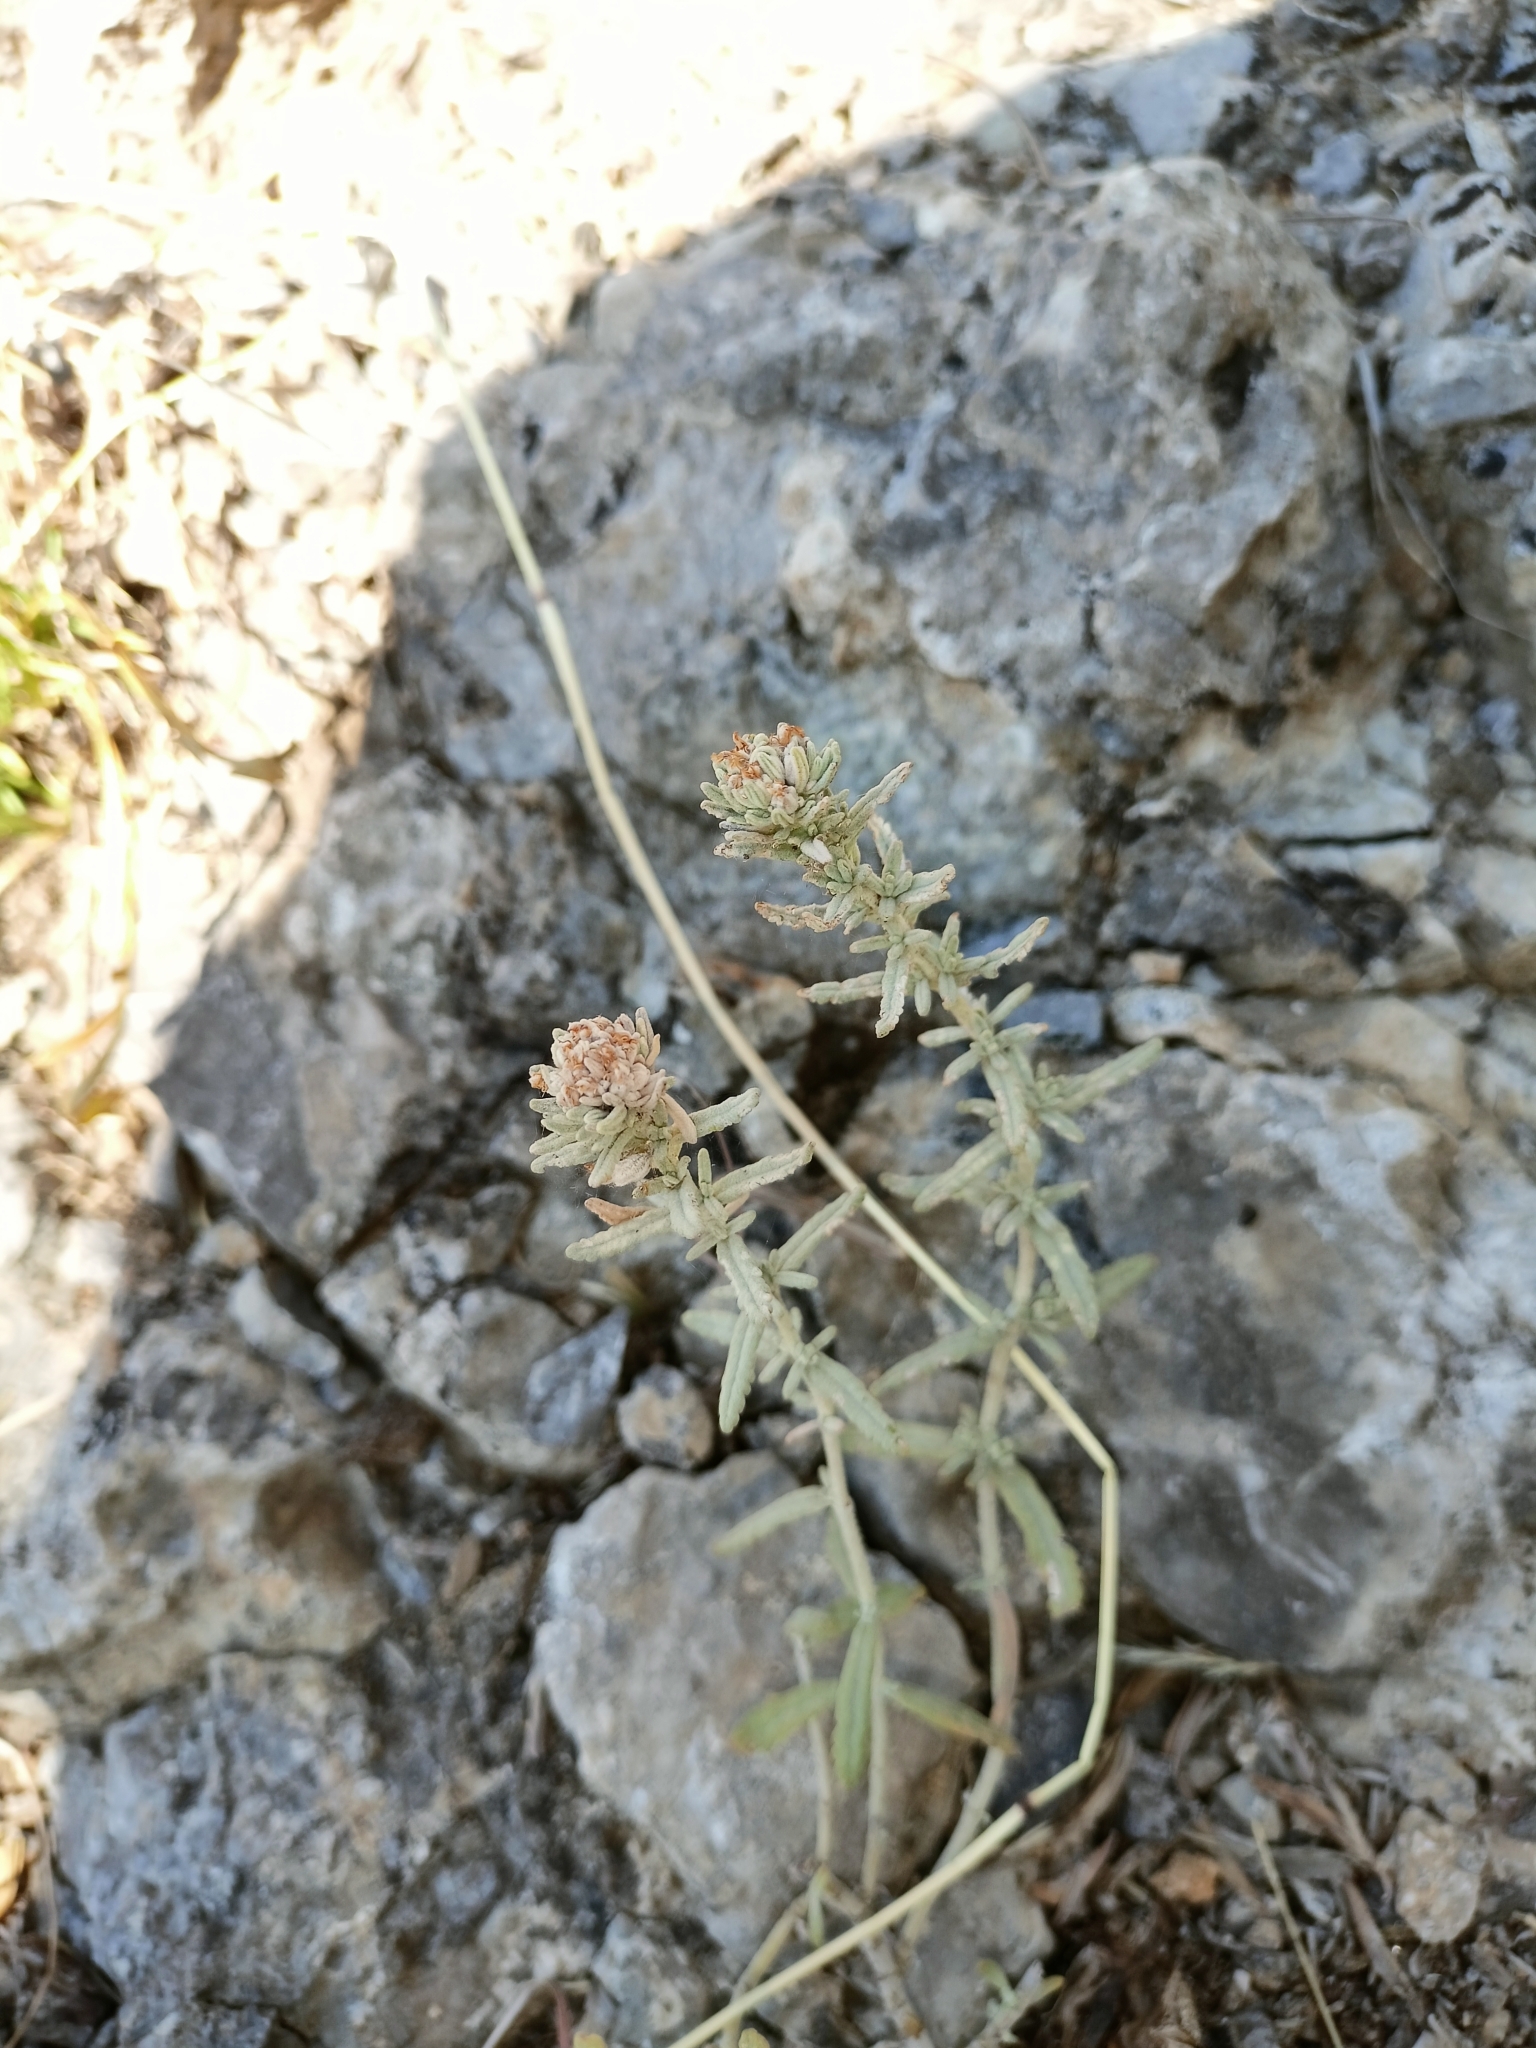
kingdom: Plantae
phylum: Tracheophyta
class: Magnoliopsida
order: Lamiales
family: Lamiaceae
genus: Teucrium
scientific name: Teucrium polium
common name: Poley
